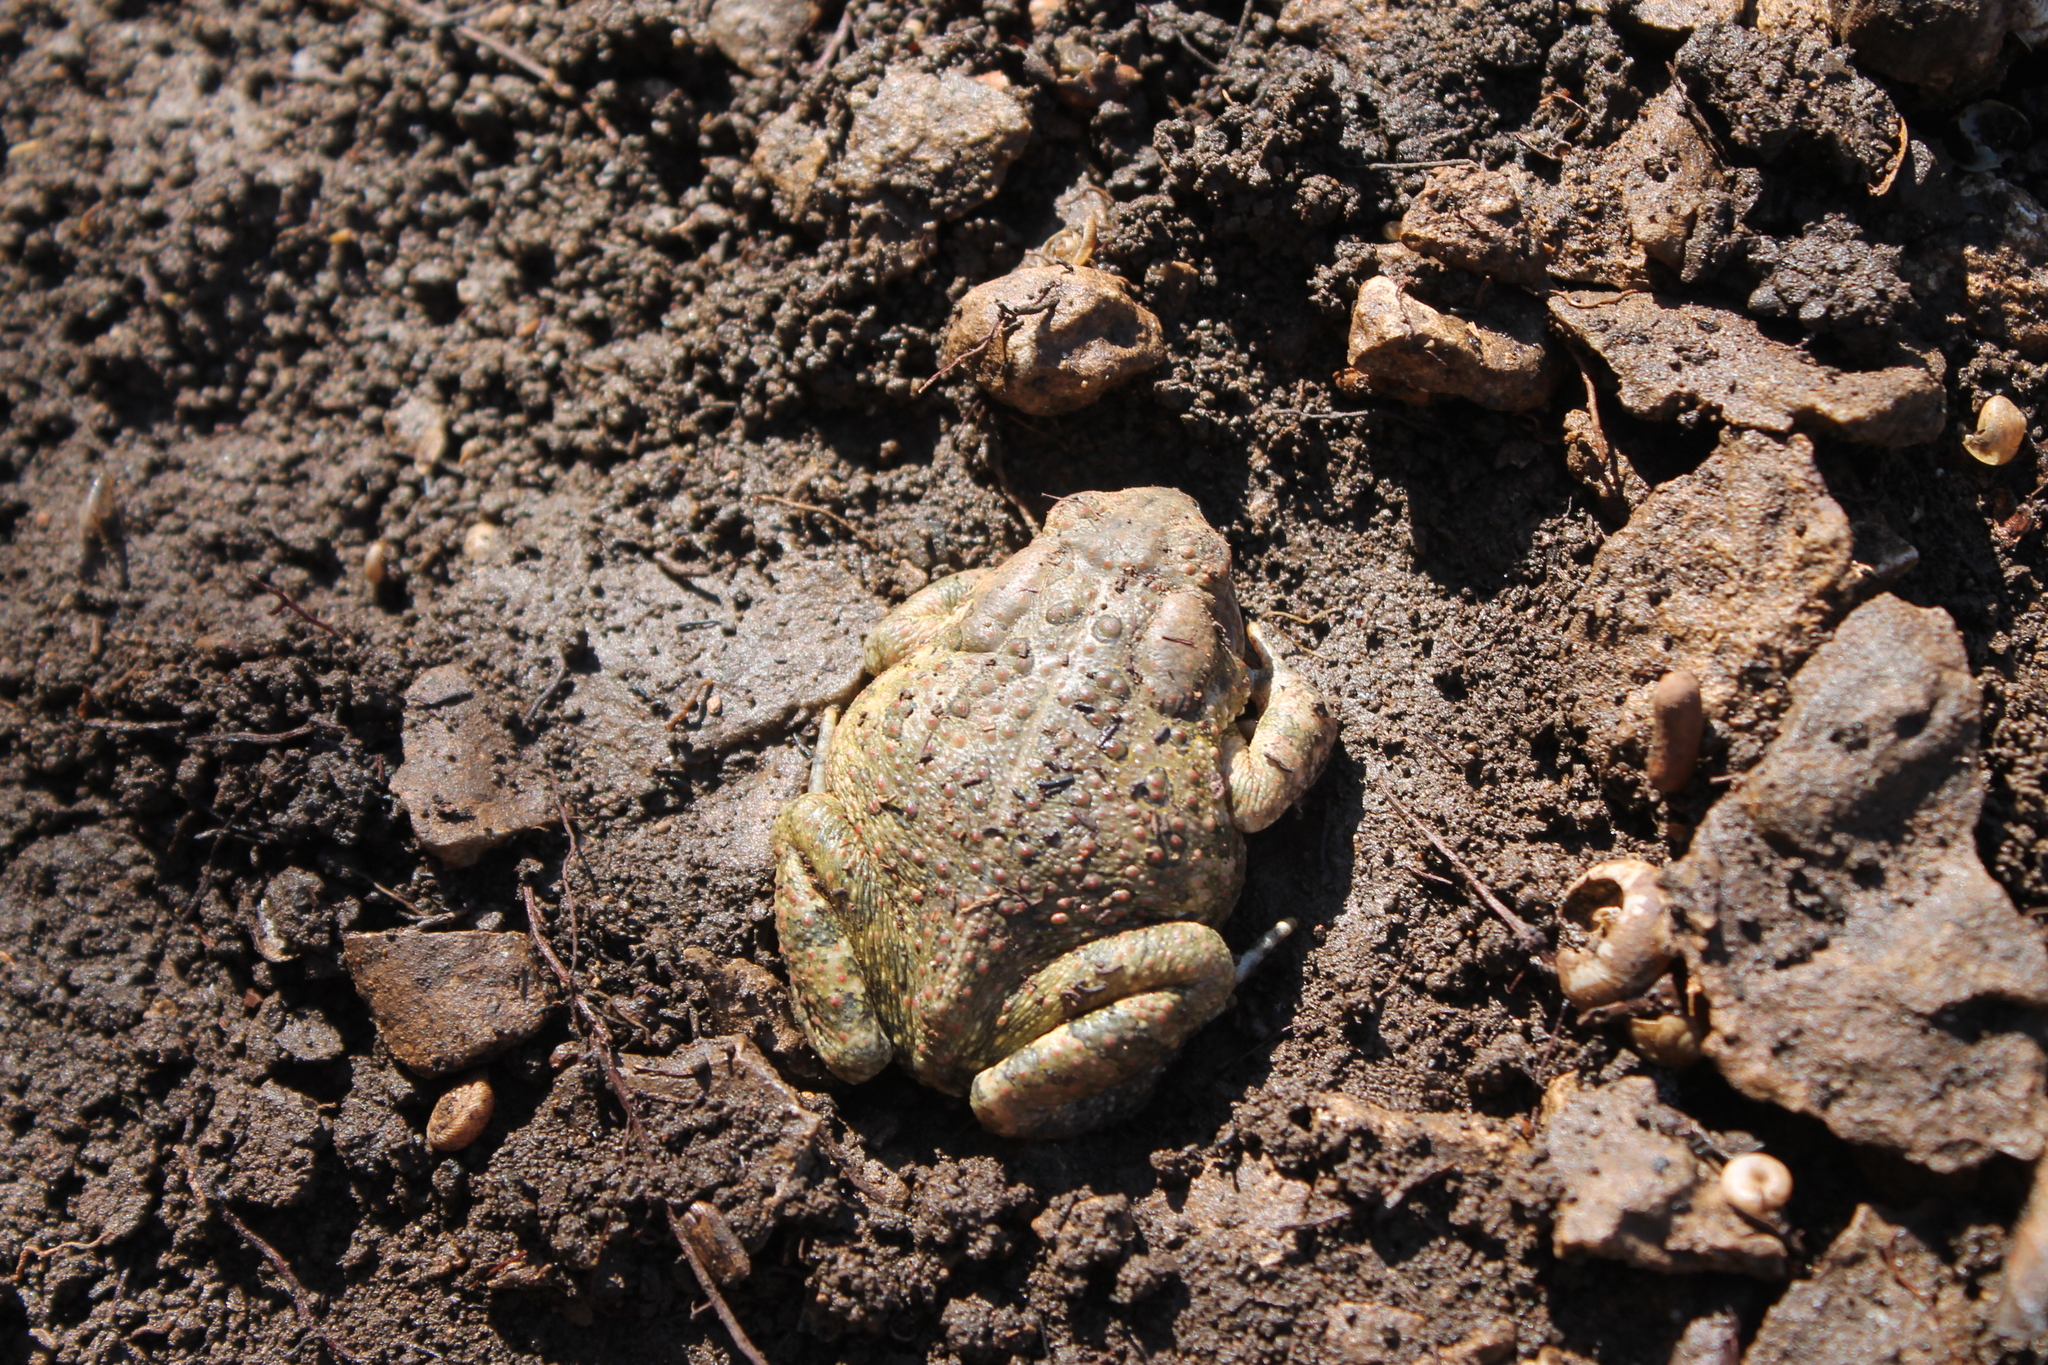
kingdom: Animalia
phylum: Chordata
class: Amphibia
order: Anura
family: Bufonidae
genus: Anaxyrus
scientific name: Anaxyrus fowleri
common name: Fowler's toad
